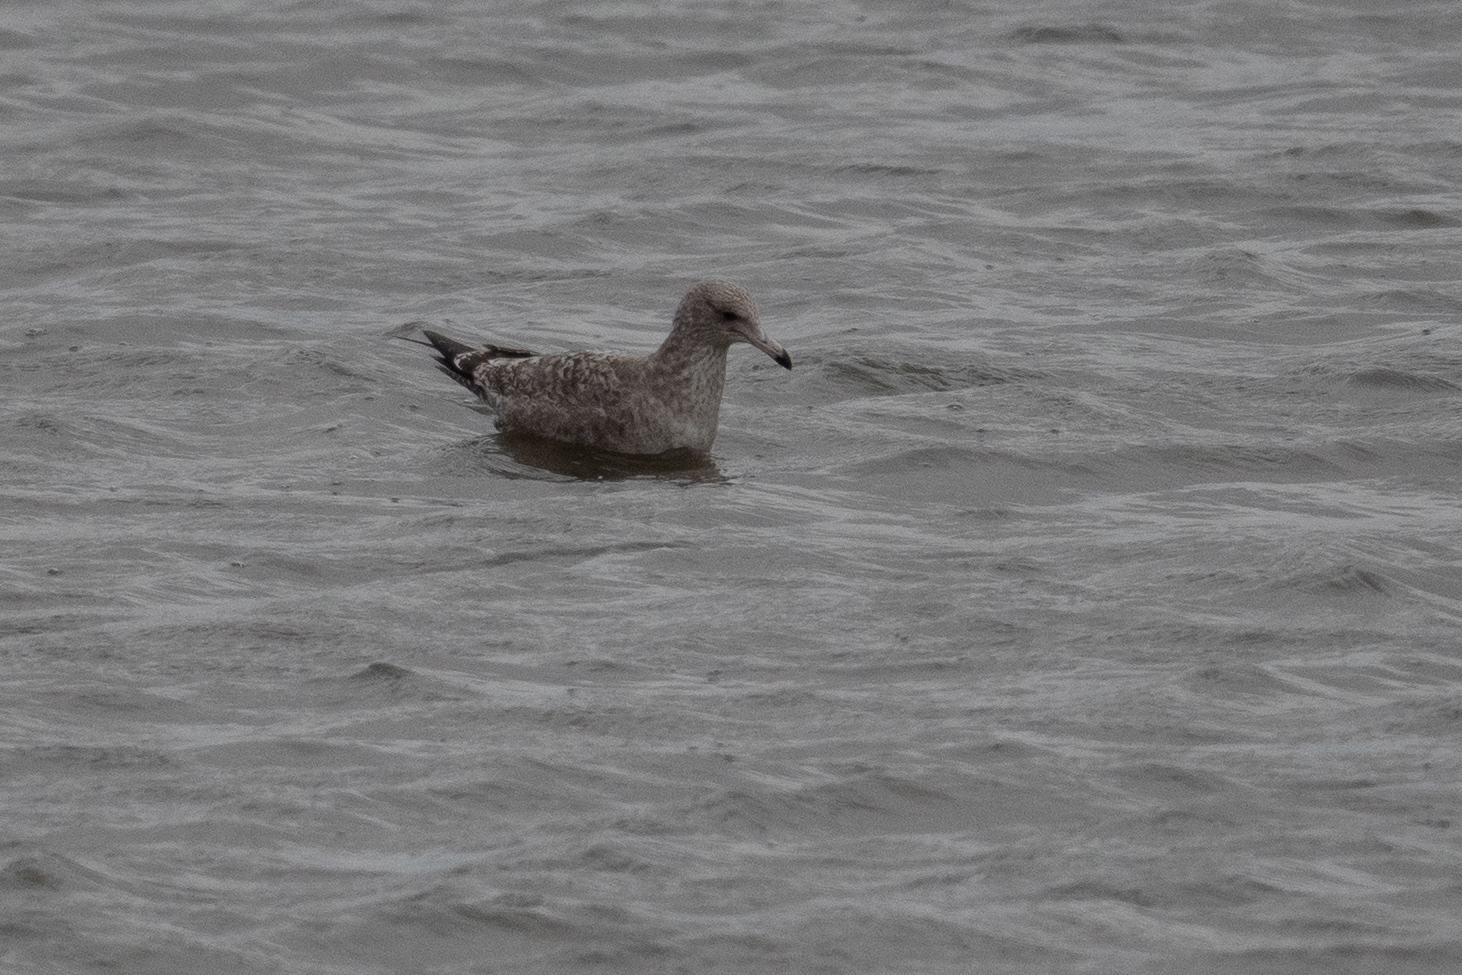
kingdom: Animalia
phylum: Chordata
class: Aves
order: Charadriiformes
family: Laridae
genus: Larus
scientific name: Larus californicus
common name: California gull
